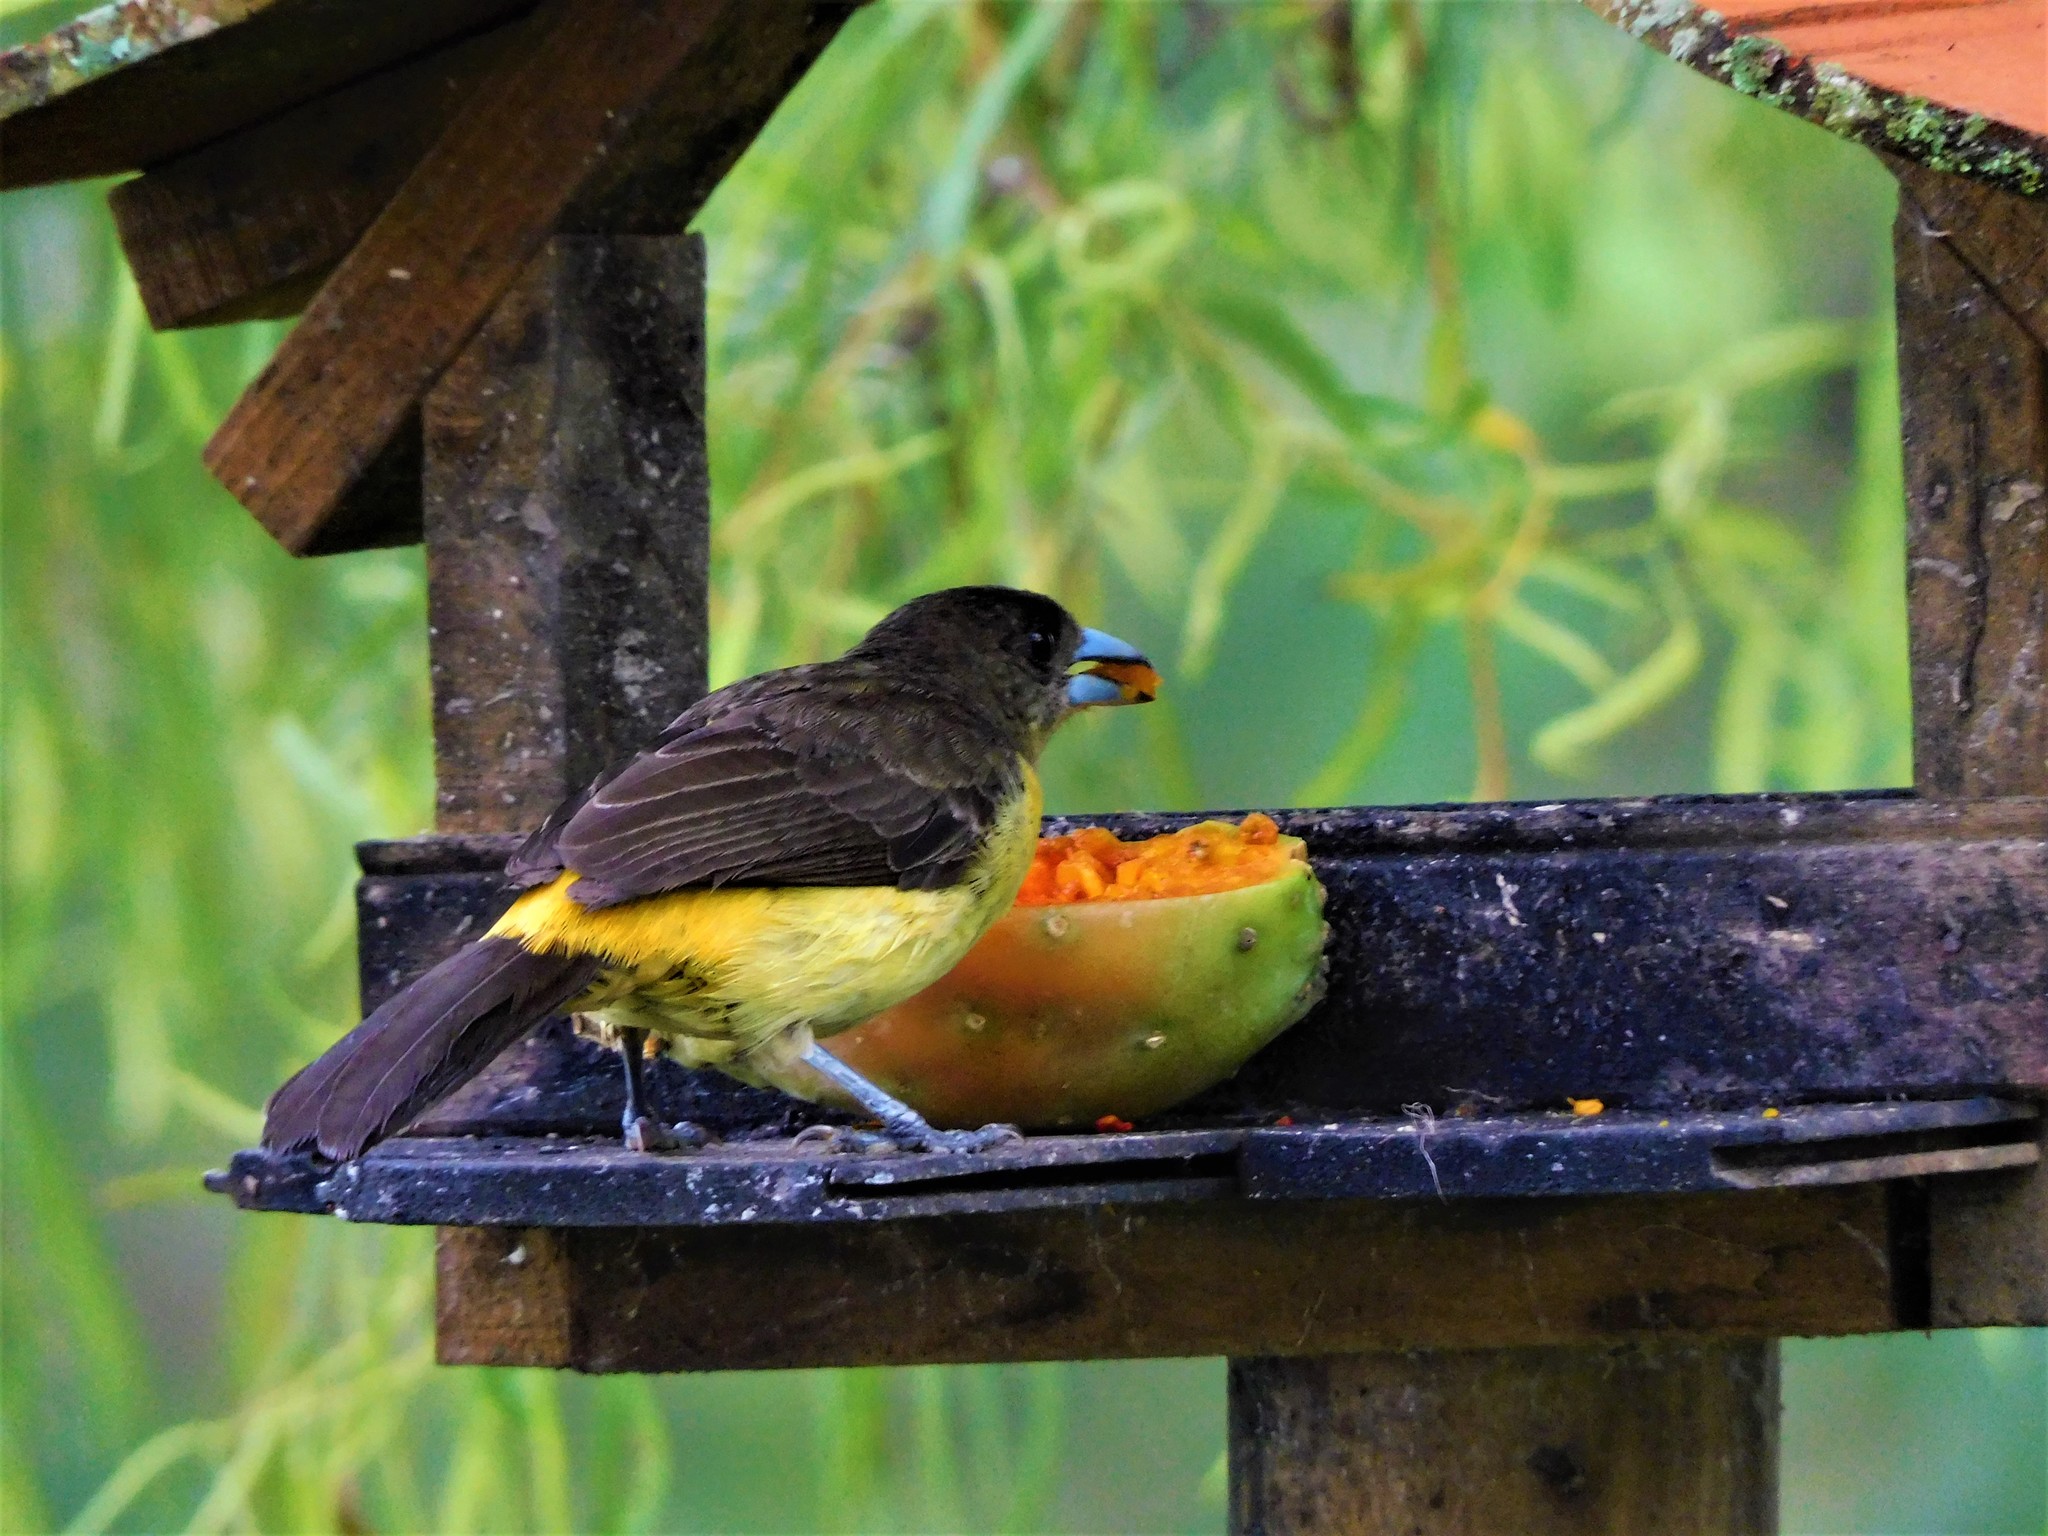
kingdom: Animalia
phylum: Chordata
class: Aves
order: Passeriformes
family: Thraupidae
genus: Ramphocelus
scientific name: Ramphocelus flammigerus
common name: Flame-rumped tanager
